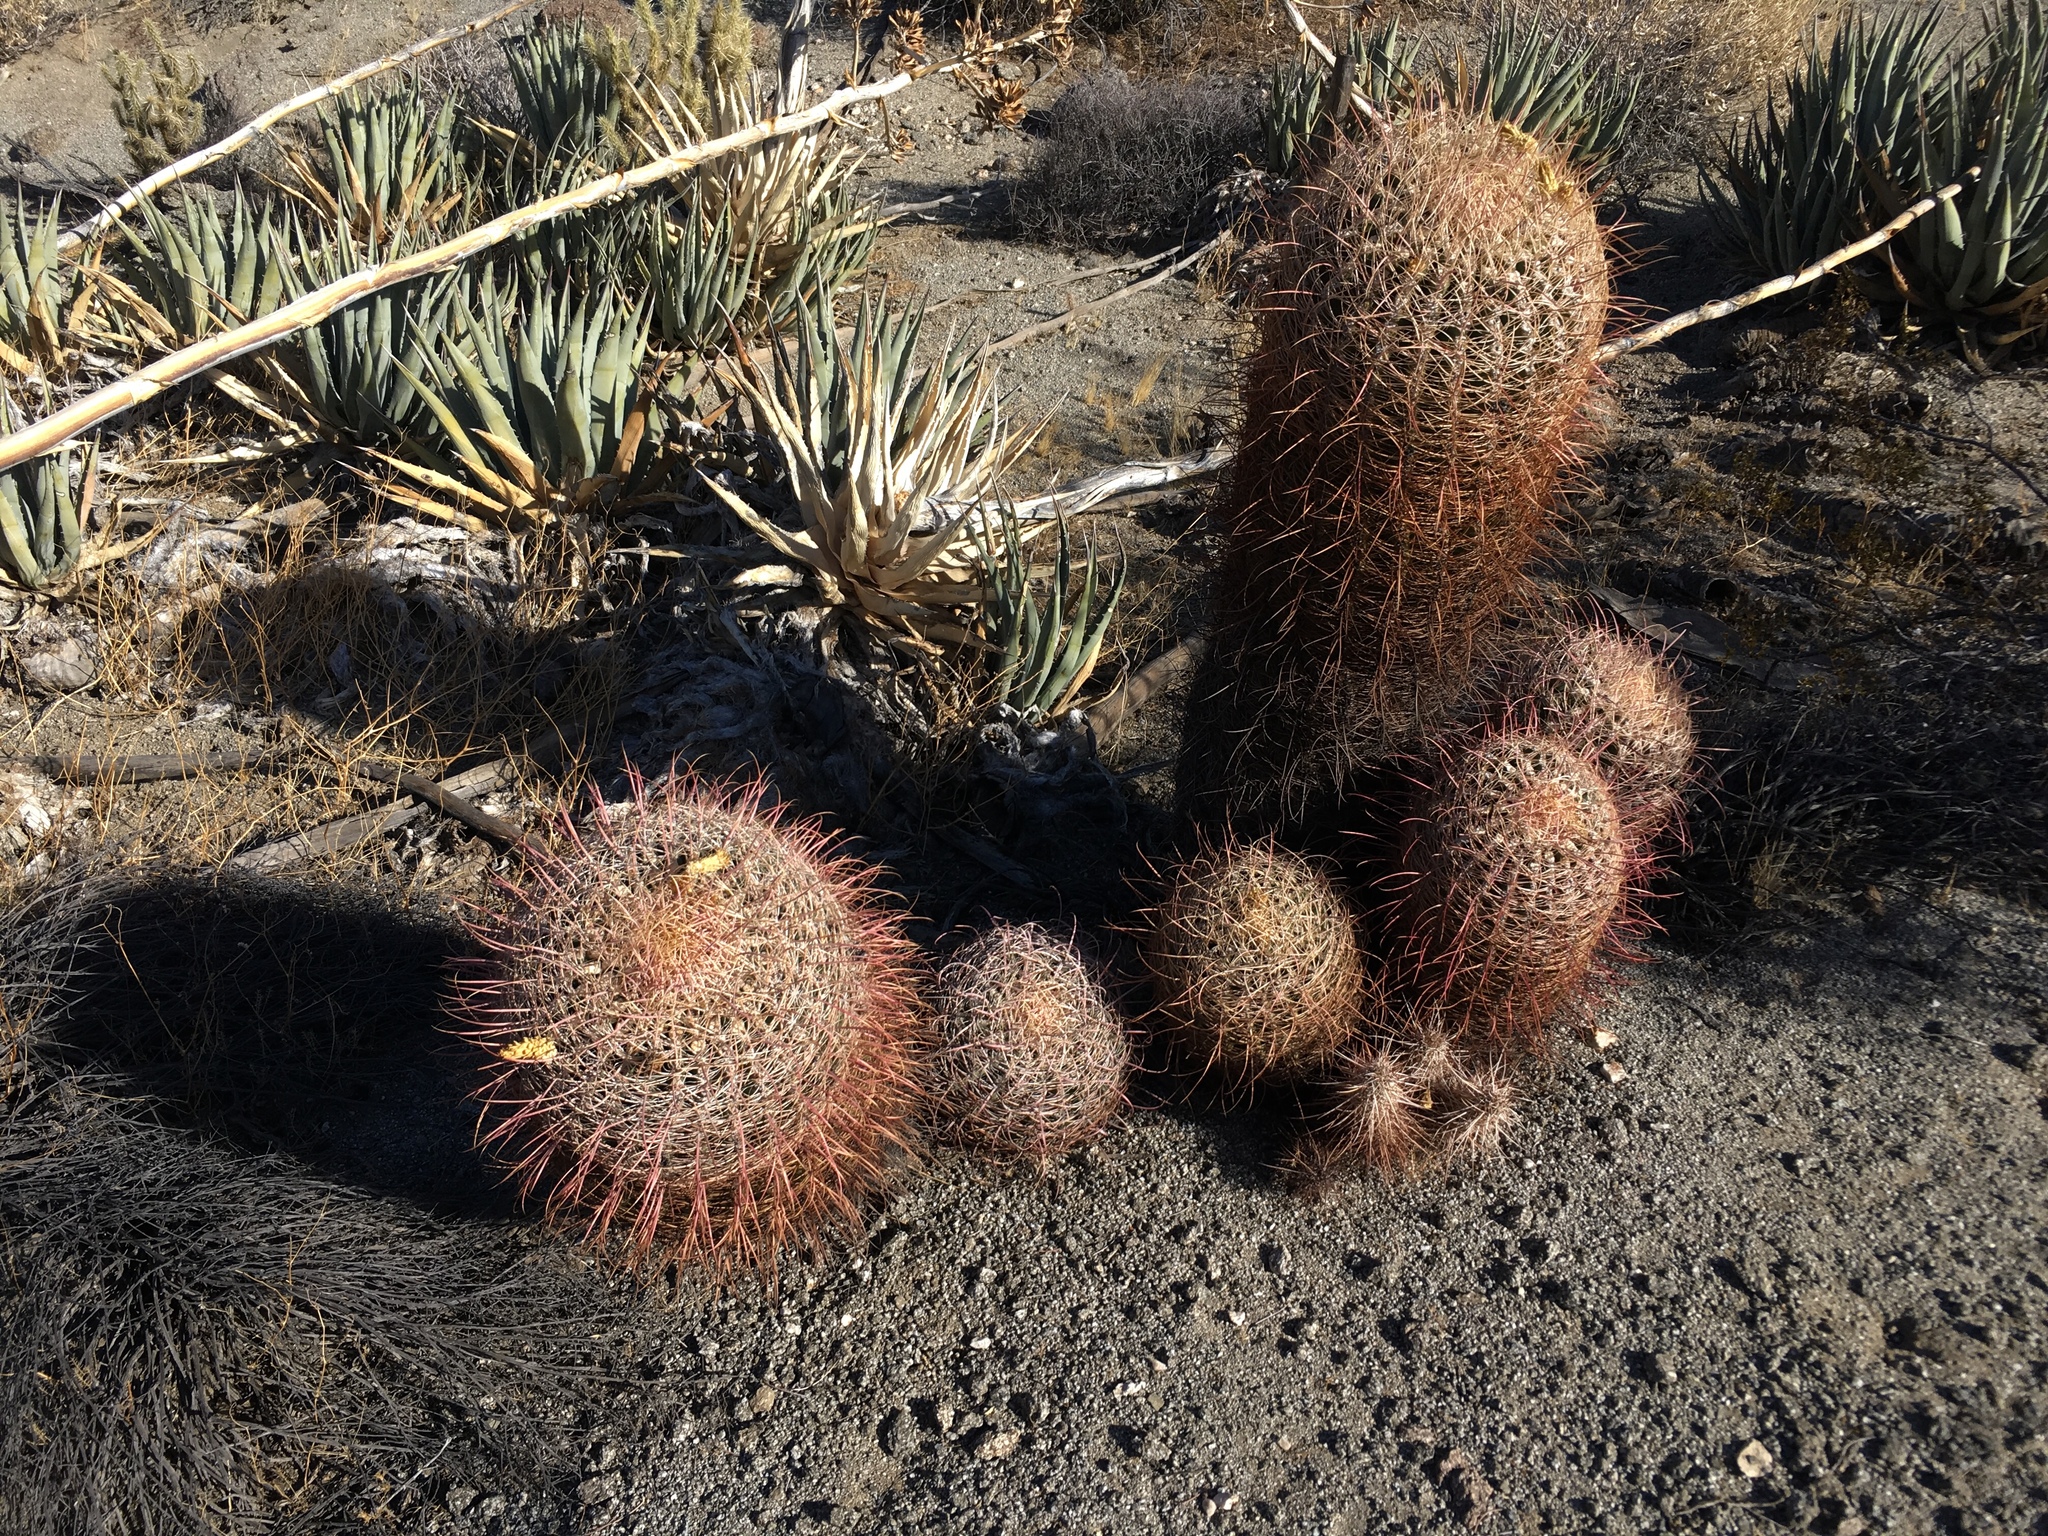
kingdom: Plantae
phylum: Tracheophyta
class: Magnoliopsida
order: Caryophyllales
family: Cactaceae
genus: Ferocactus
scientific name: Ferocactus cylindraceus
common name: California barrel cactus
